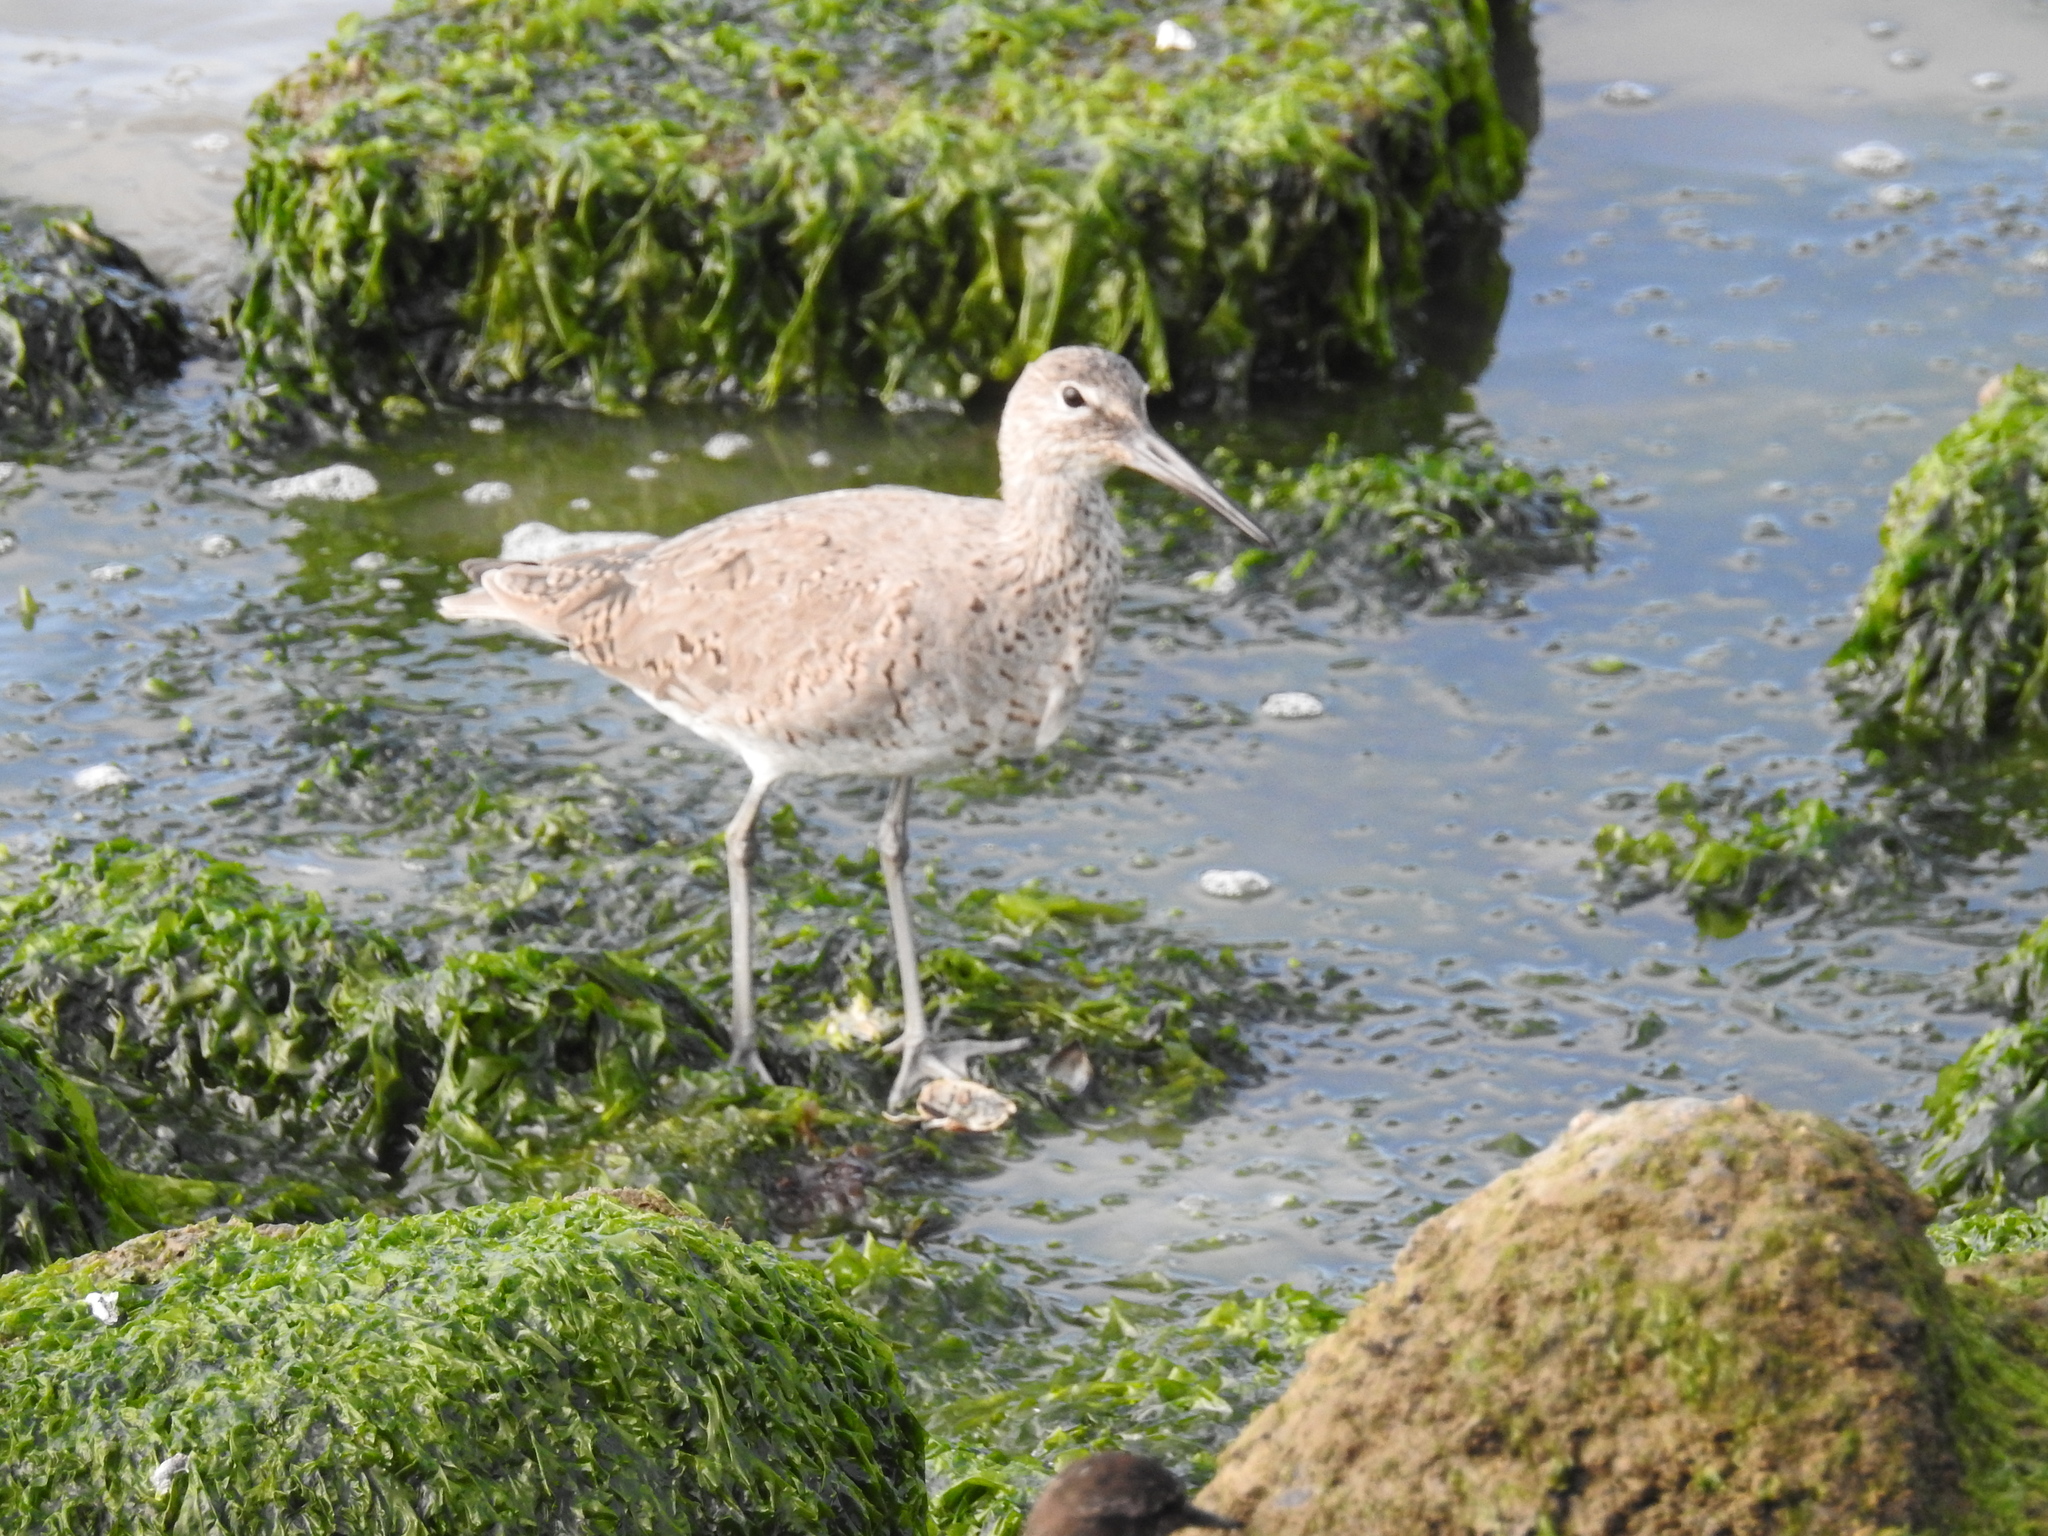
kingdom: Animalia
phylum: Chordata
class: Aves
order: Charadriiformes
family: Scolopacidae
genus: Tringa
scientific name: Tringa semipalmata
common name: Willet
